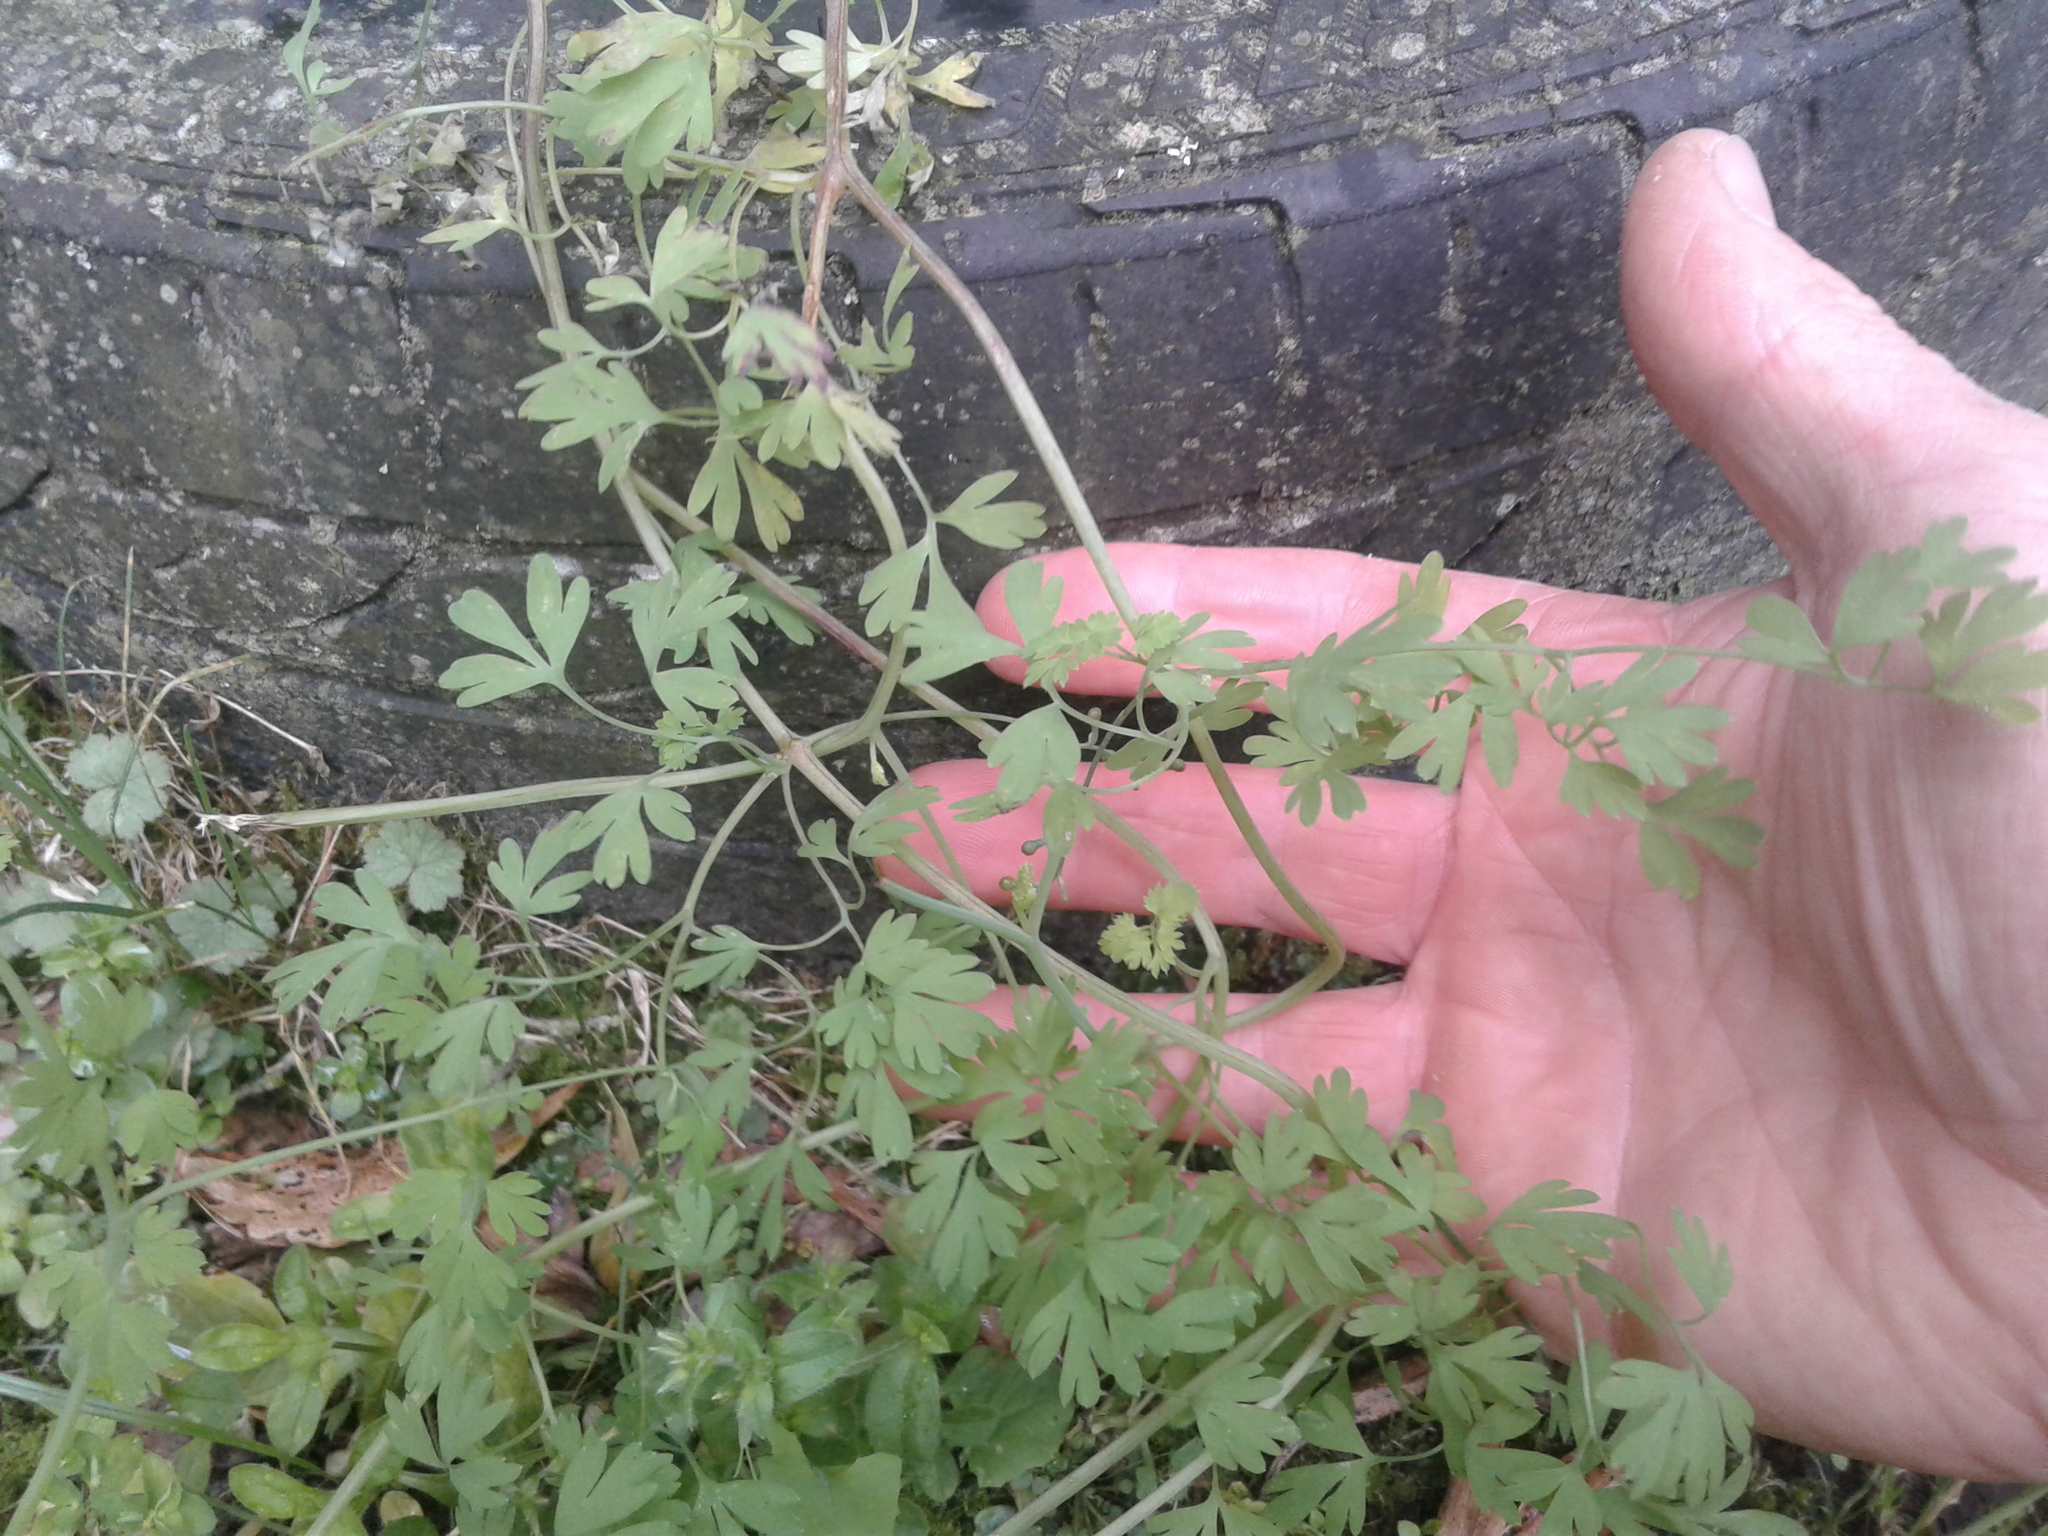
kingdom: Plantae
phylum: Tracheophyta
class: Magnoliopsida
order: Ranunculales
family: Papaveraceae
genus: Fumaria
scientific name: Fumaria
